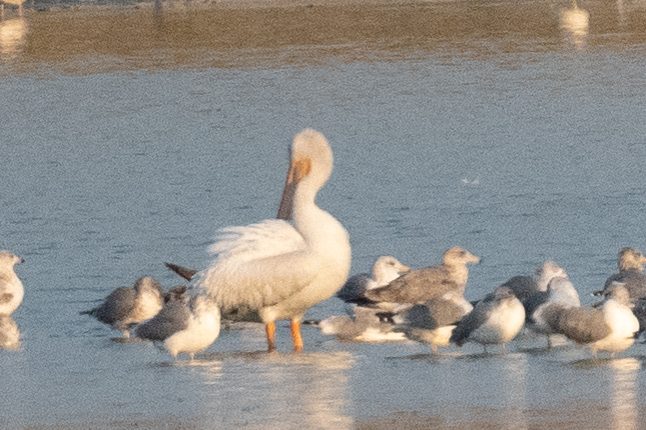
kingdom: Animalia
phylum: Chordata
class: Aves
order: Pelecaniformes
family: Pelecanidae
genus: Pelecanus
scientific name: Pelecanus erythrorhynchos
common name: American white pelican
